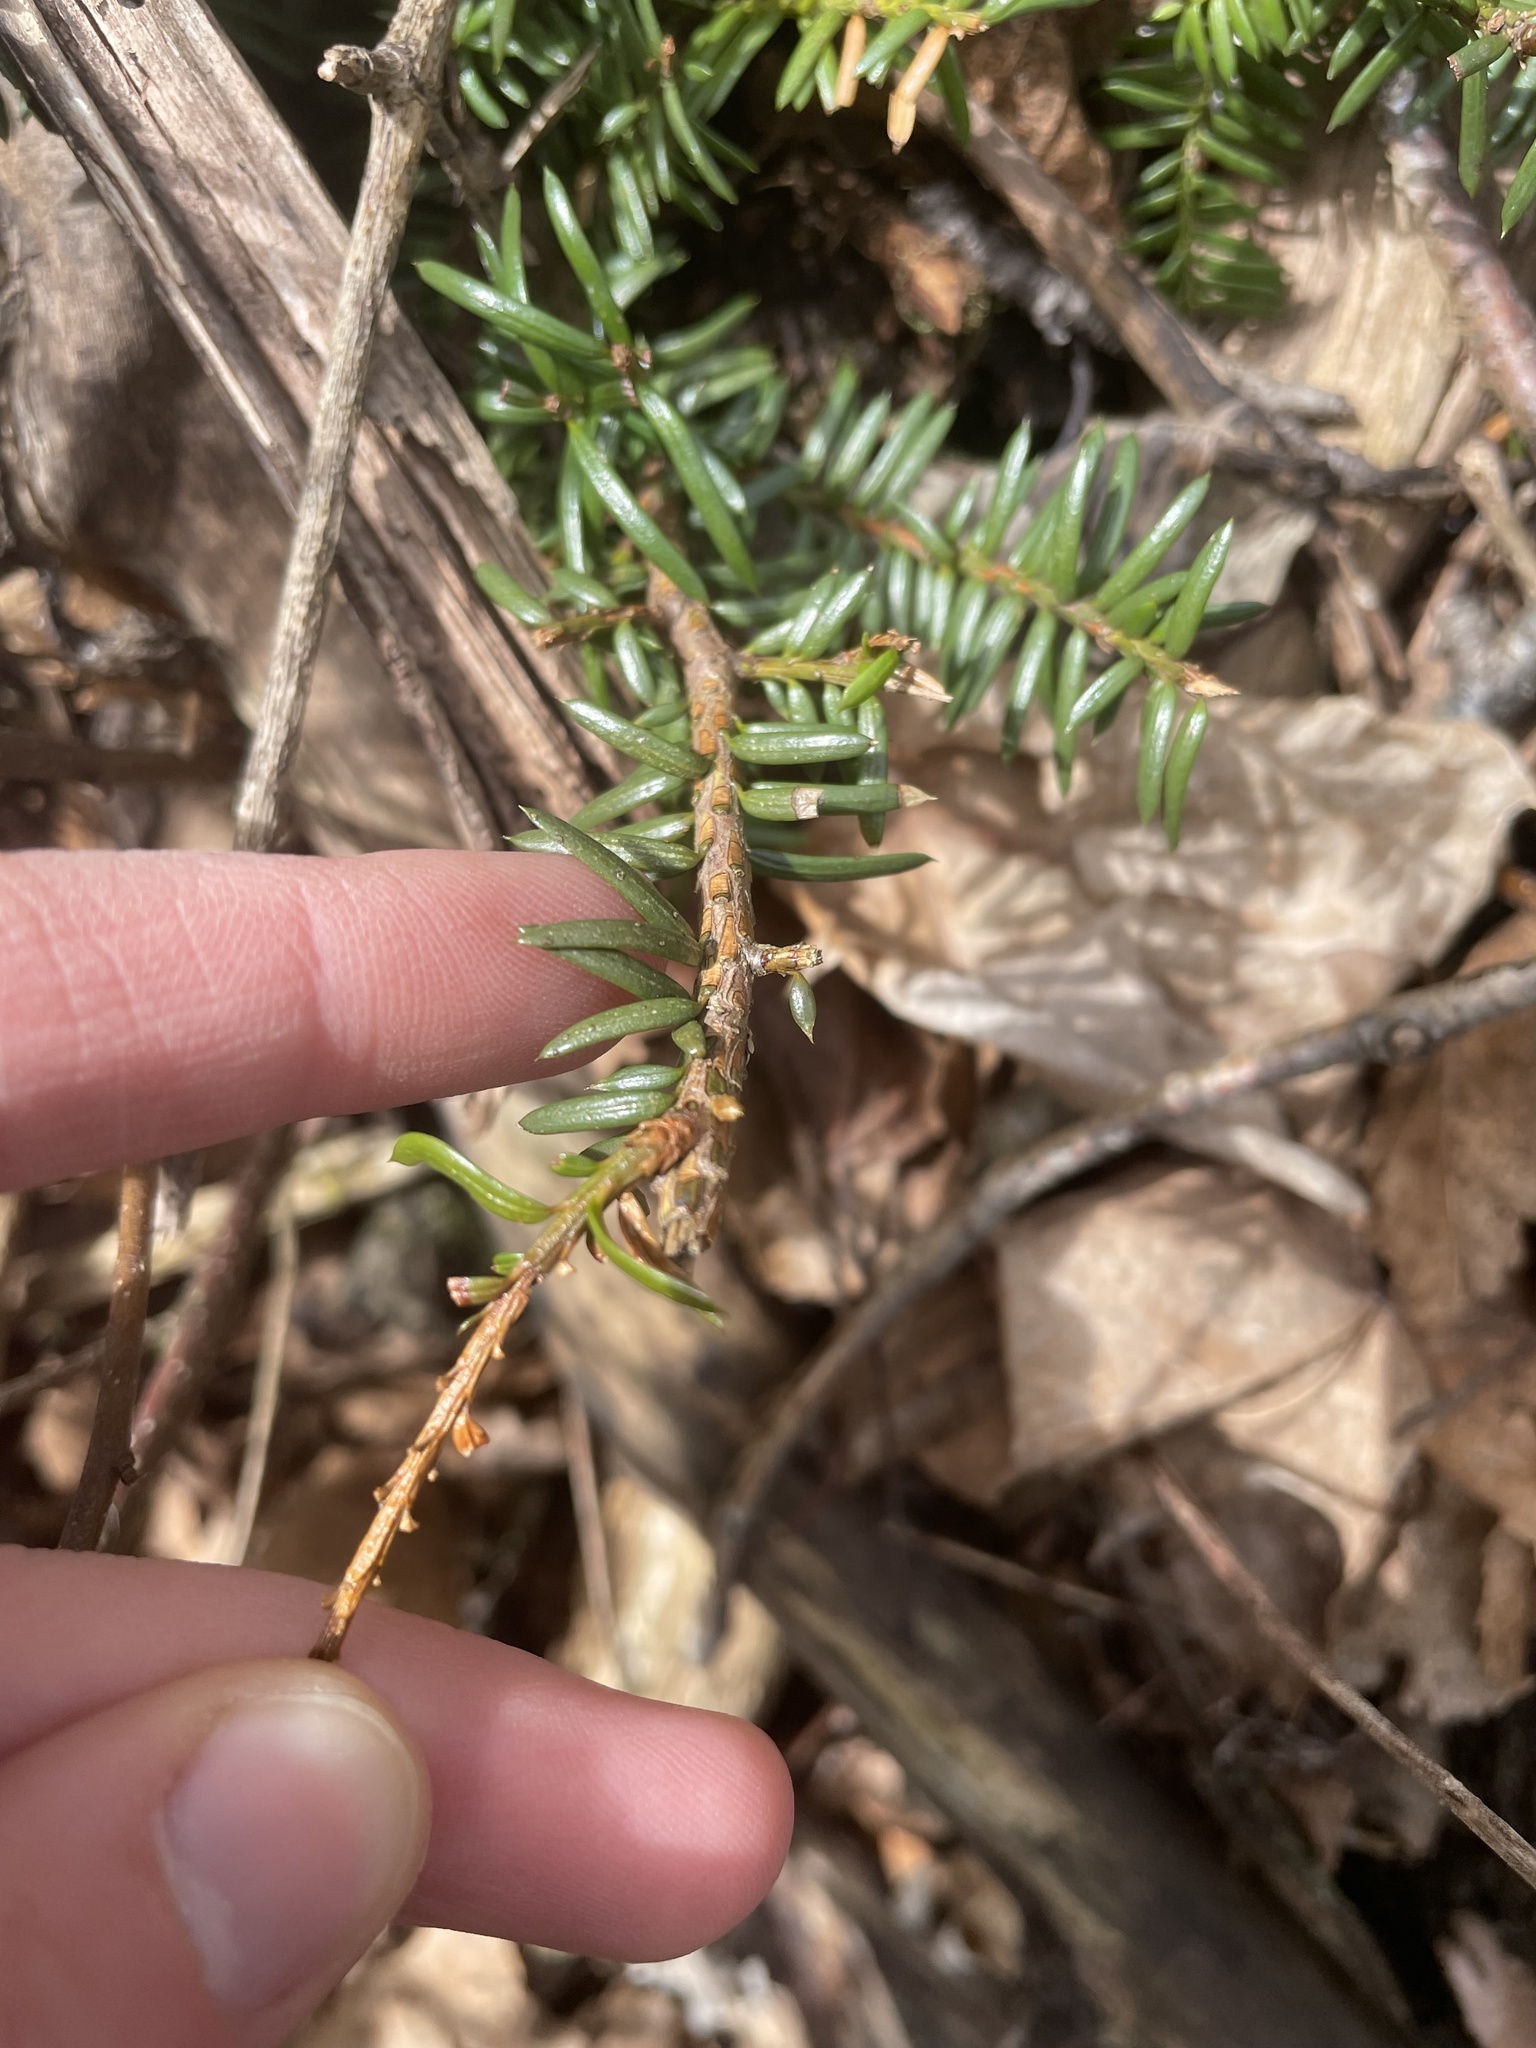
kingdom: Plantae
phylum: Tracheophyta
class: Pinopsida
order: Pinales
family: Taxaceae
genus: Taxus
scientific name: Taxus canadensis
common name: American yew
